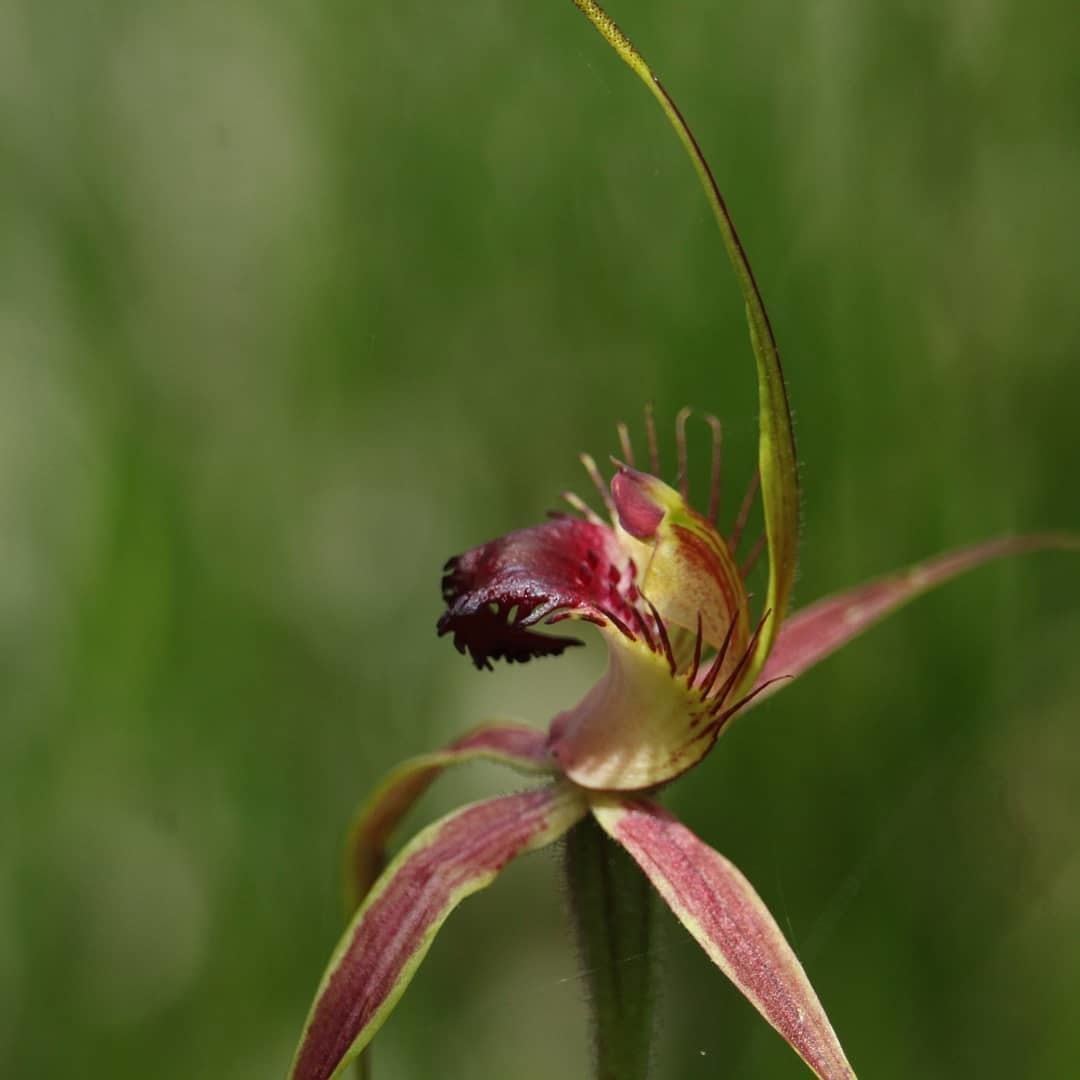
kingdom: Plantae
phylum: Tracheophyta
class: Liliopsida
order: Asparagales
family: Orchidaceae
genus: Caladenia
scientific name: Caladenia brownii
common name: Kari spider orchid
